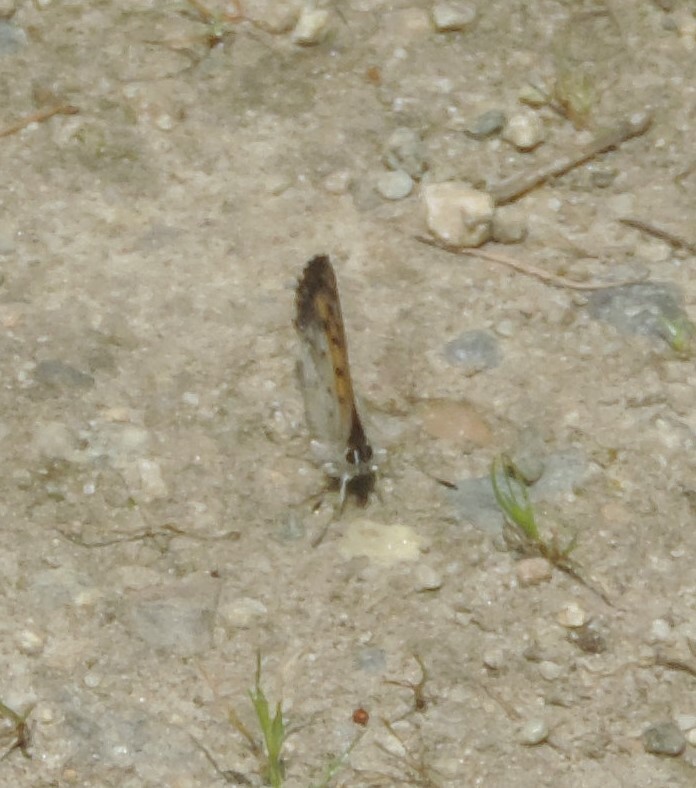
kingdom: Animalia
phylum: Arthropoda
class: Insecta
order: Lepidoptera
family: Lycaenidae
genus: Tharsalea
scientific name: Tharsalea mariposa
